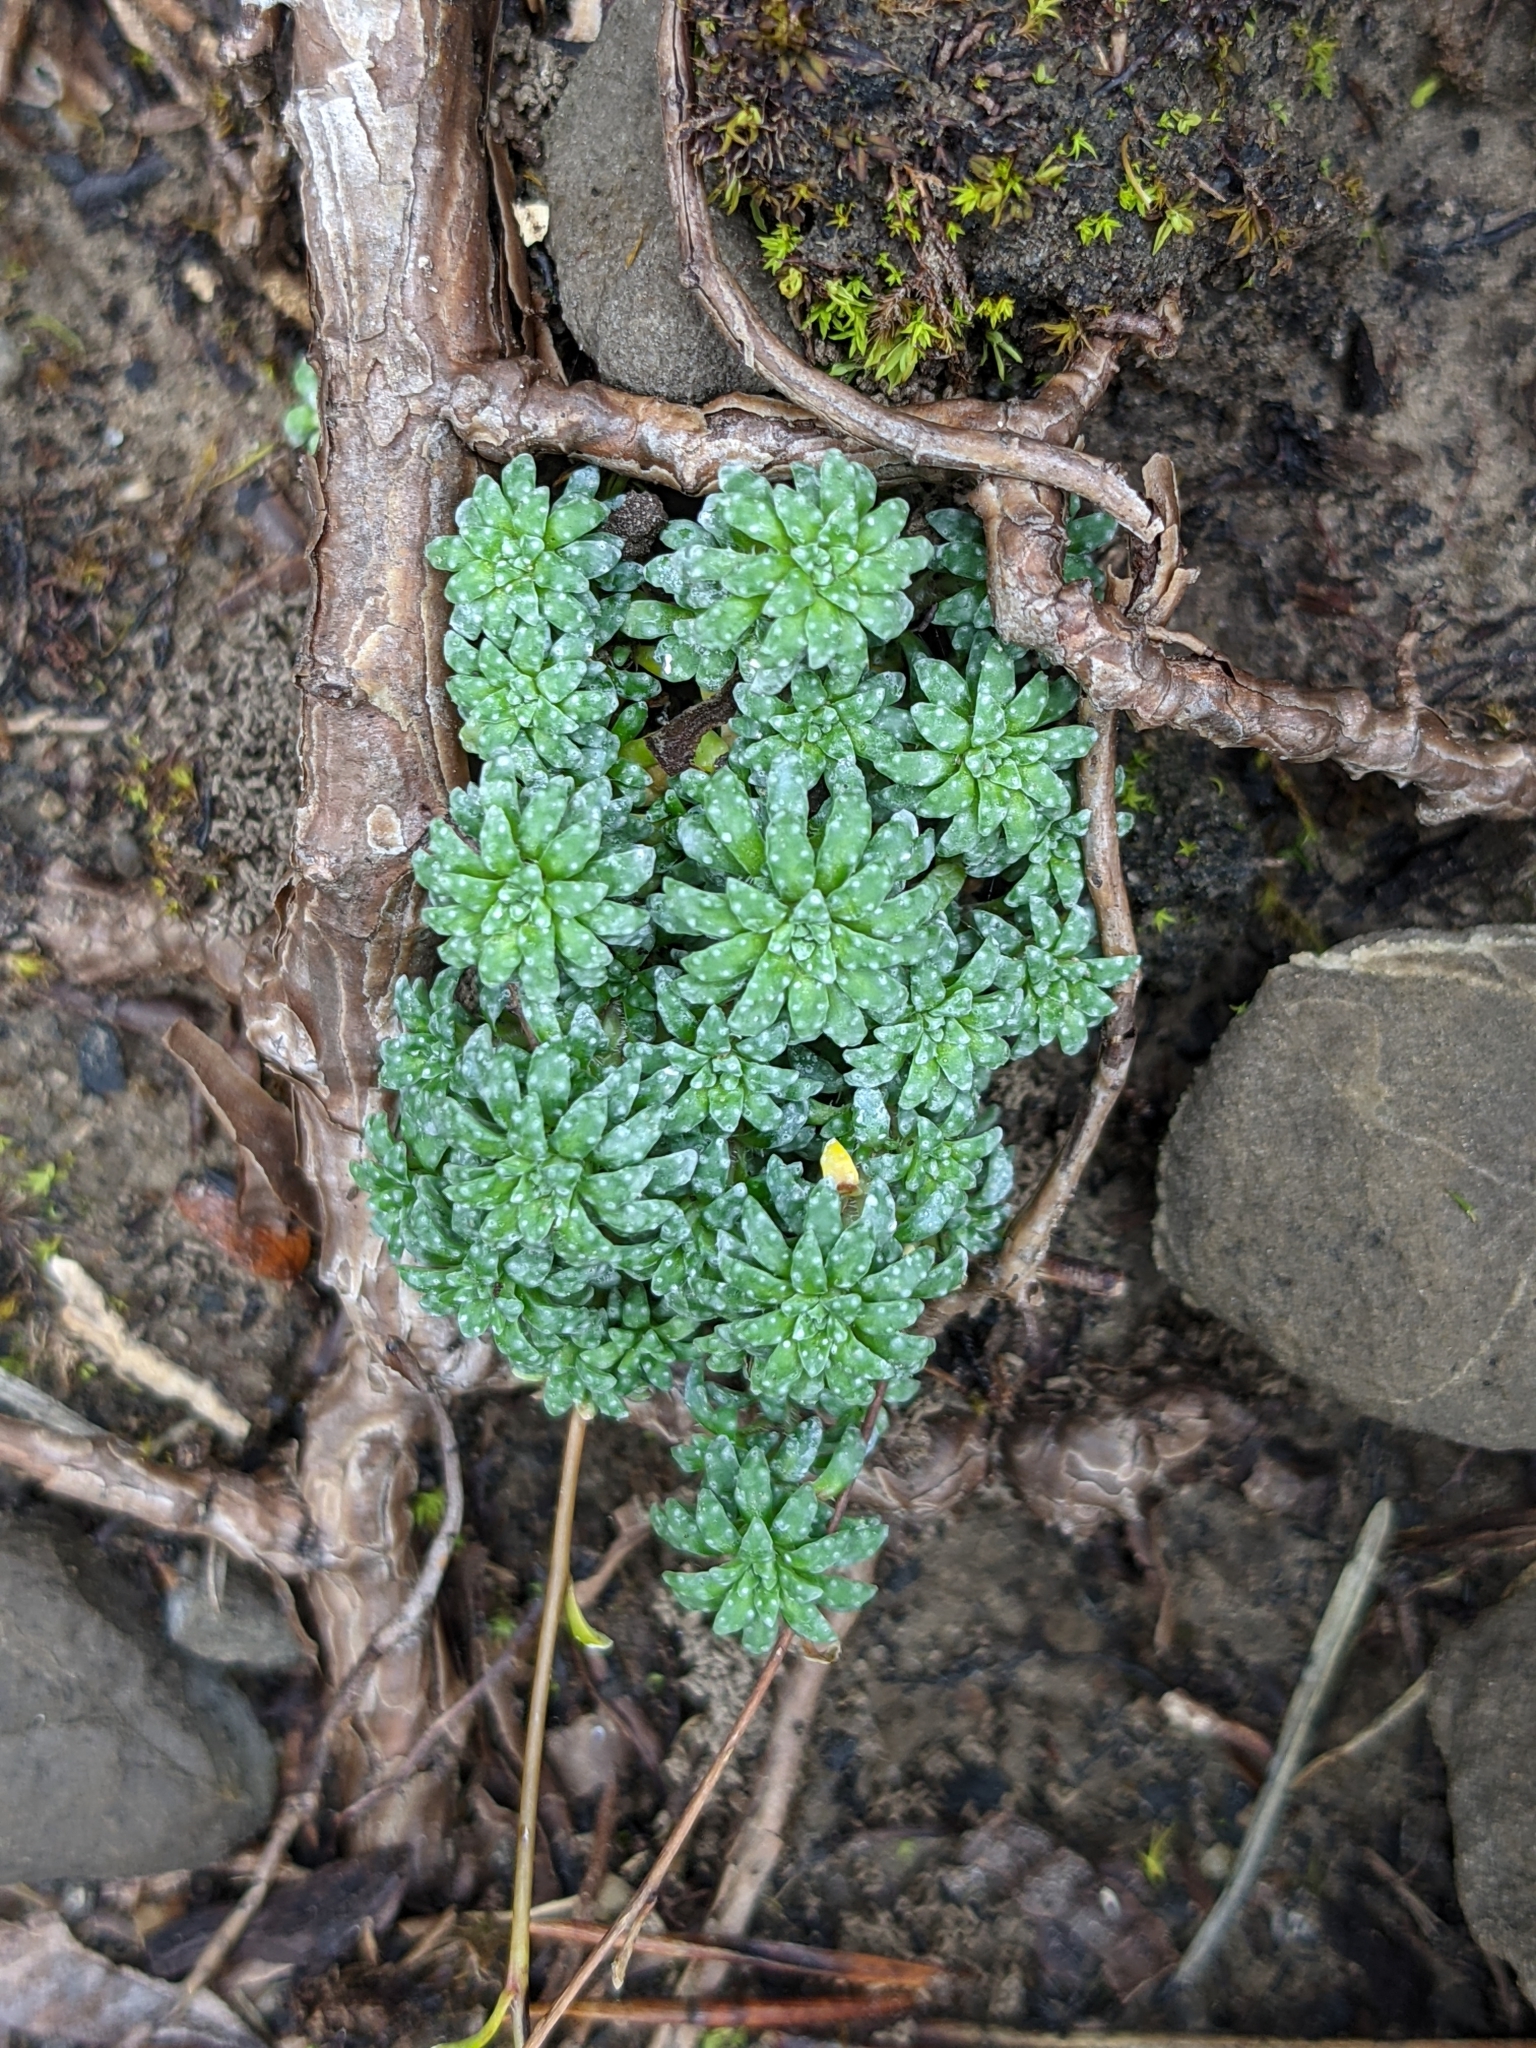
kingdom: Plantae
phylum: Tracheophyta
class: Magnoliopsida
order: Saxifragales
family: Saxifragaceae
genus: Saxifraga
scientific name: Saxifraga caesia
